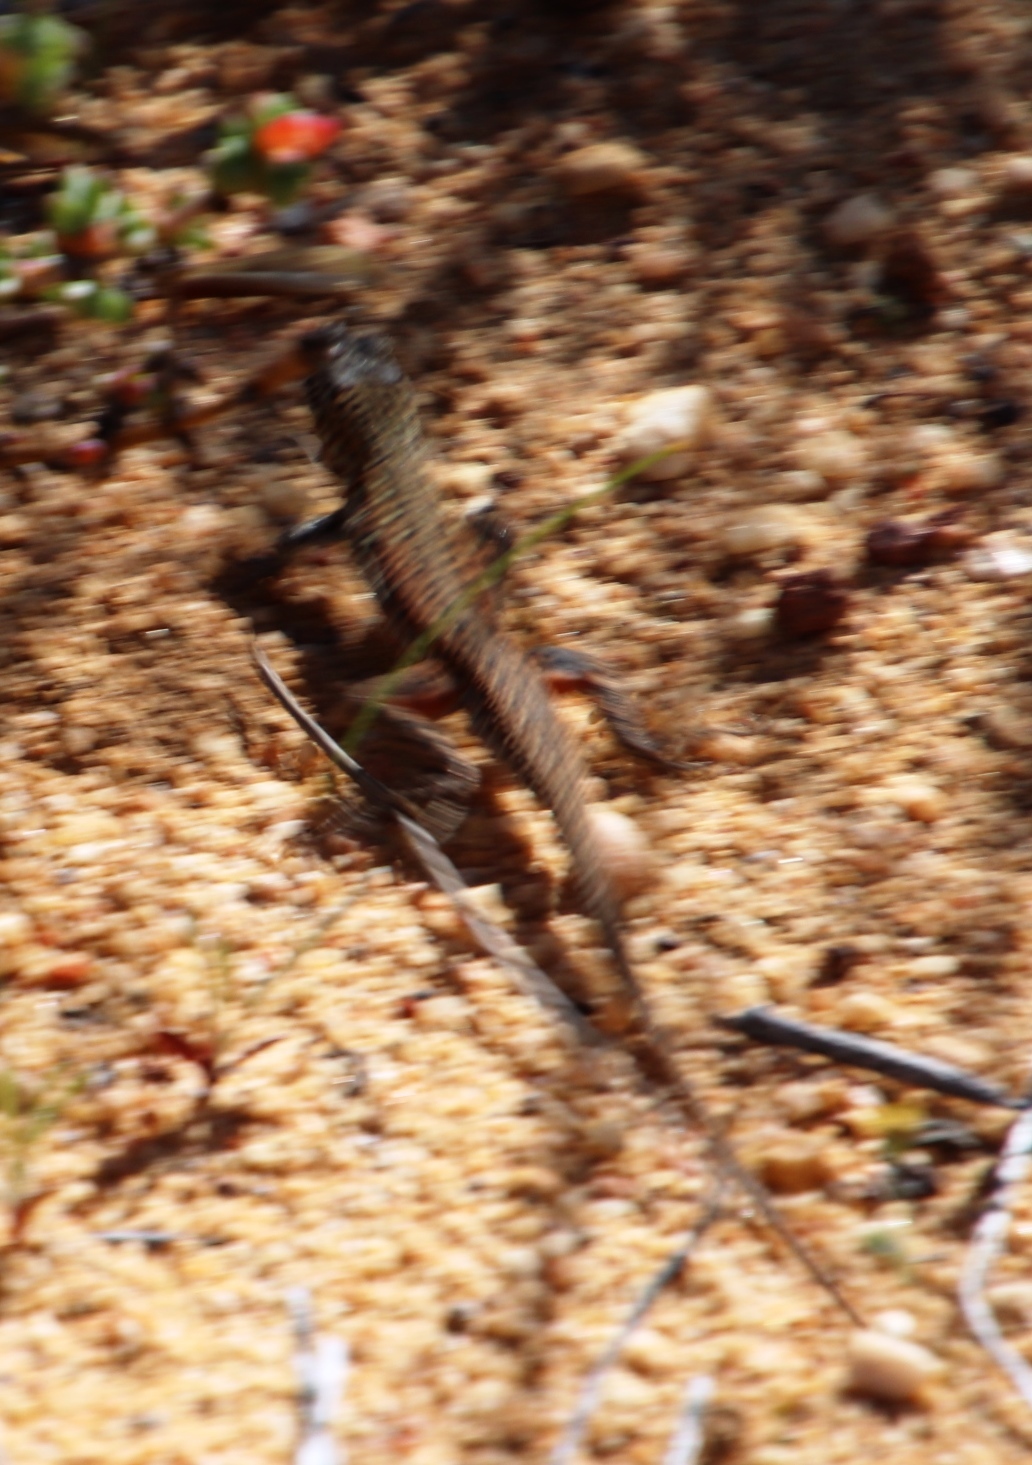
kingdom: Animalia
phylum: Chordata
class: Squamata
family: Lacertidae
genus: Pedioplanis
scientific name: Pedioplanis lineoocellata
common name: Spotted sand lizard
